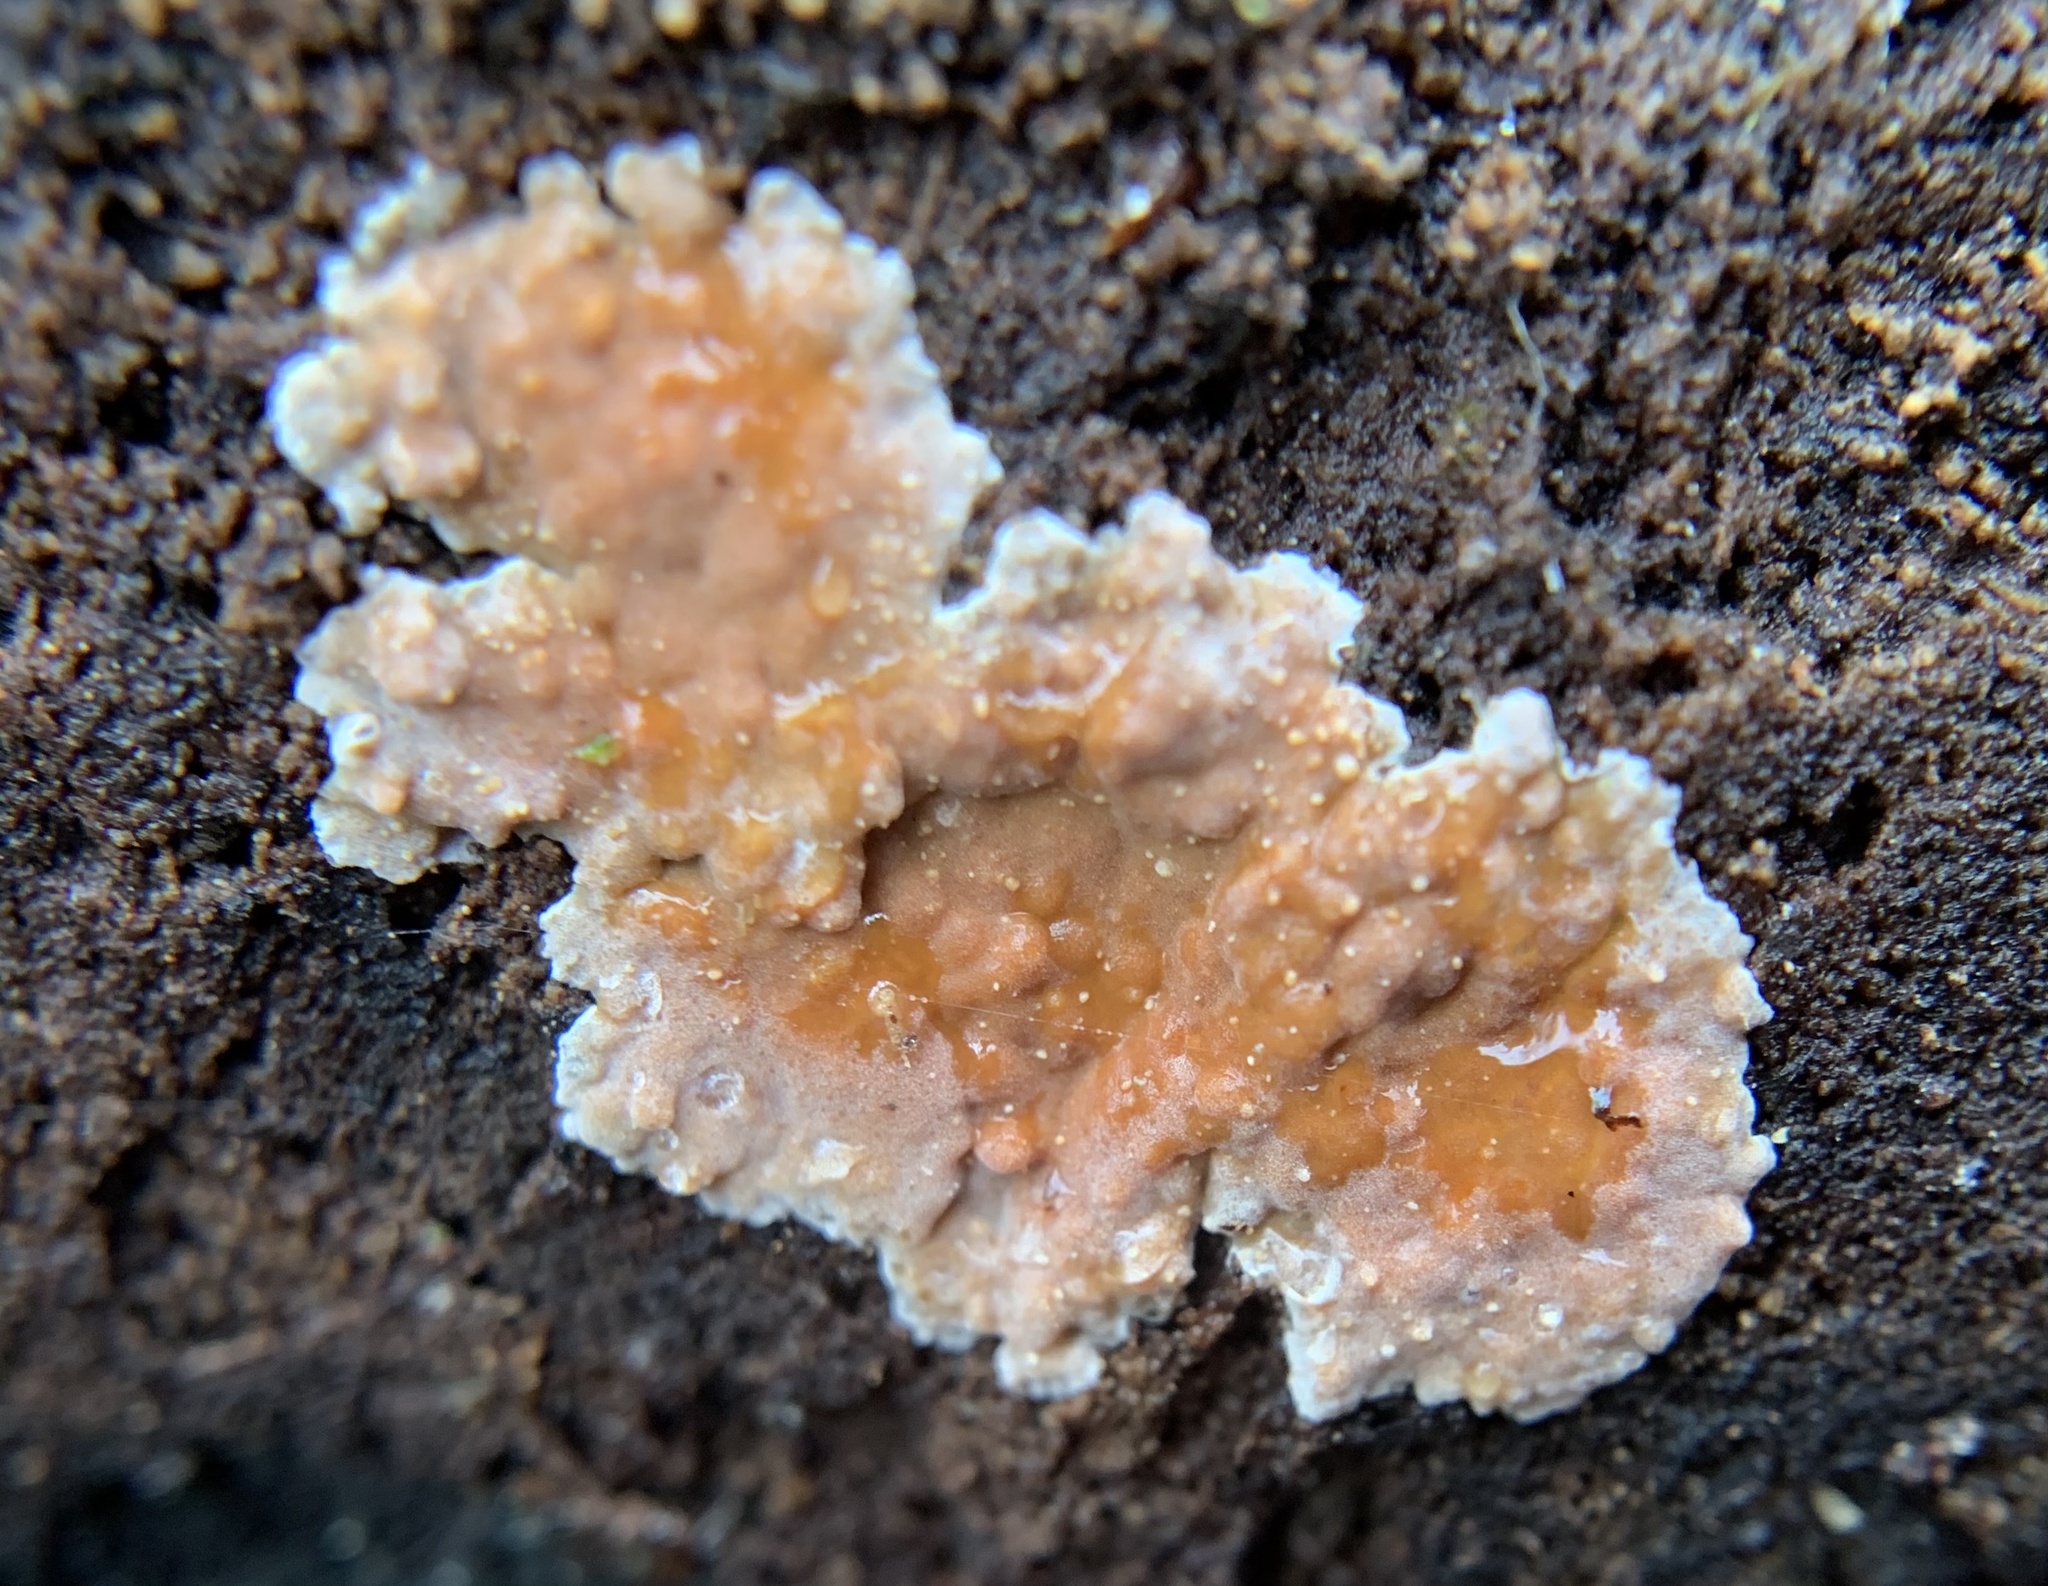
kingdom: Fungi
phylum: Basidiomycota
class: Agaricomycetes
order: Agaricales
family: Physalacriaceae
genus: Cylindrobasidium
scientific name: Cylindrobasidium laeve
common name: Tear dropper
